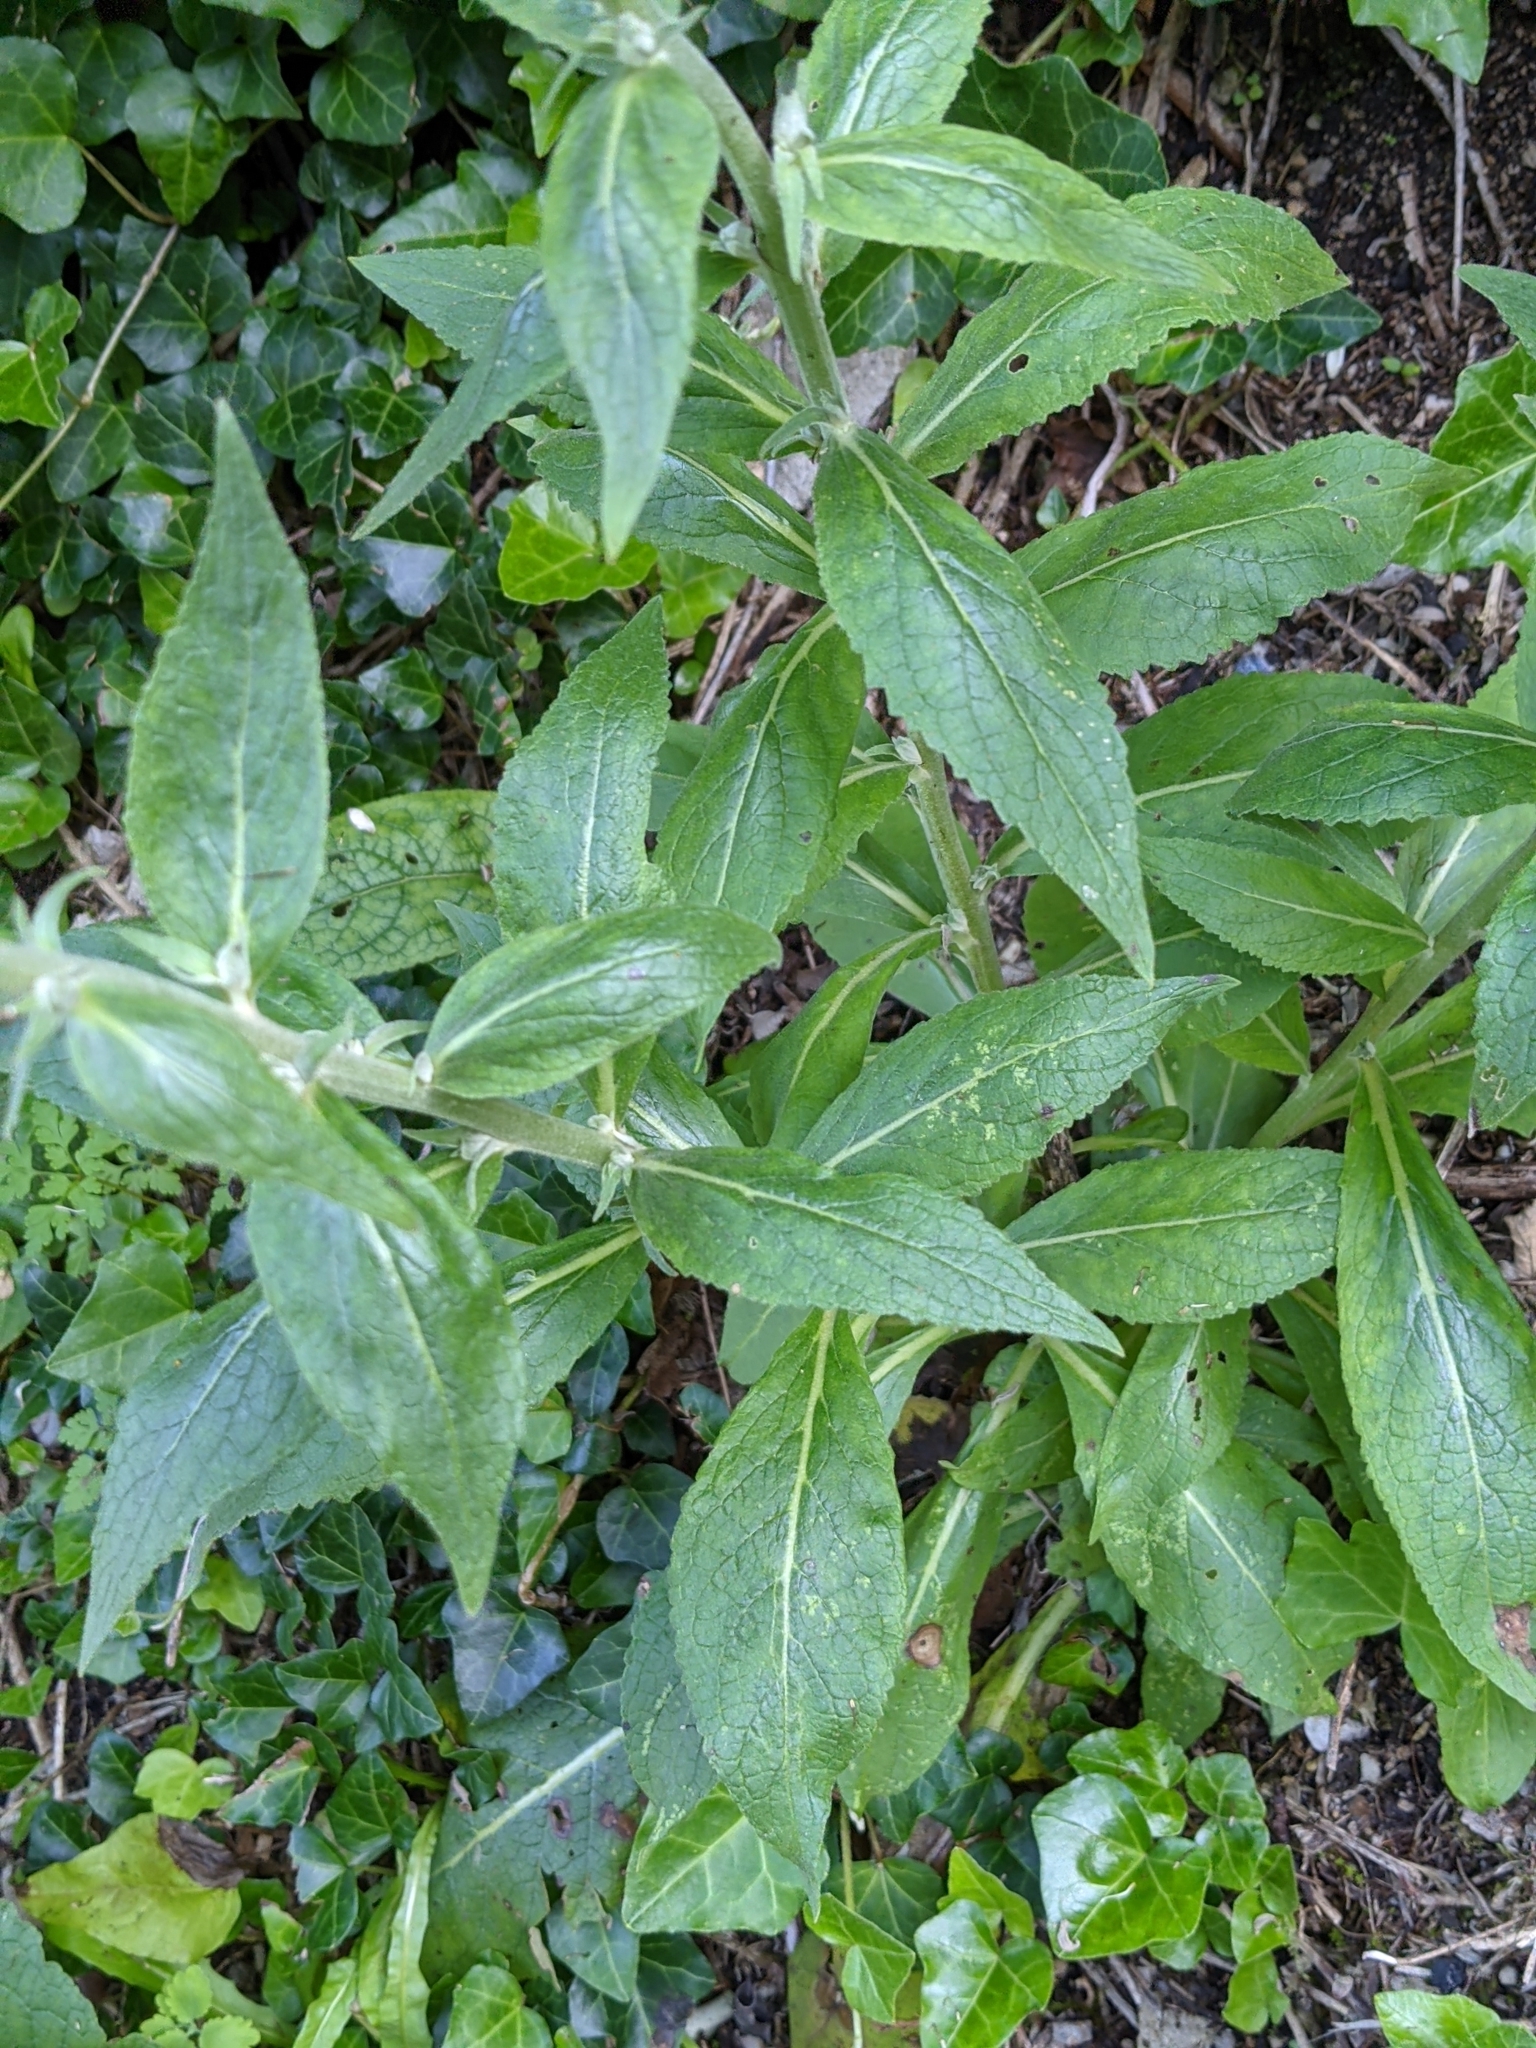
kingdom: Plantae
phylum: Tracheophyta
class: Magnoliopsida
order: Lamiales
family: Scrophulariaceae
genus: Verbascum
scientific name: Verbascum lychnitis
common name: White mullein
